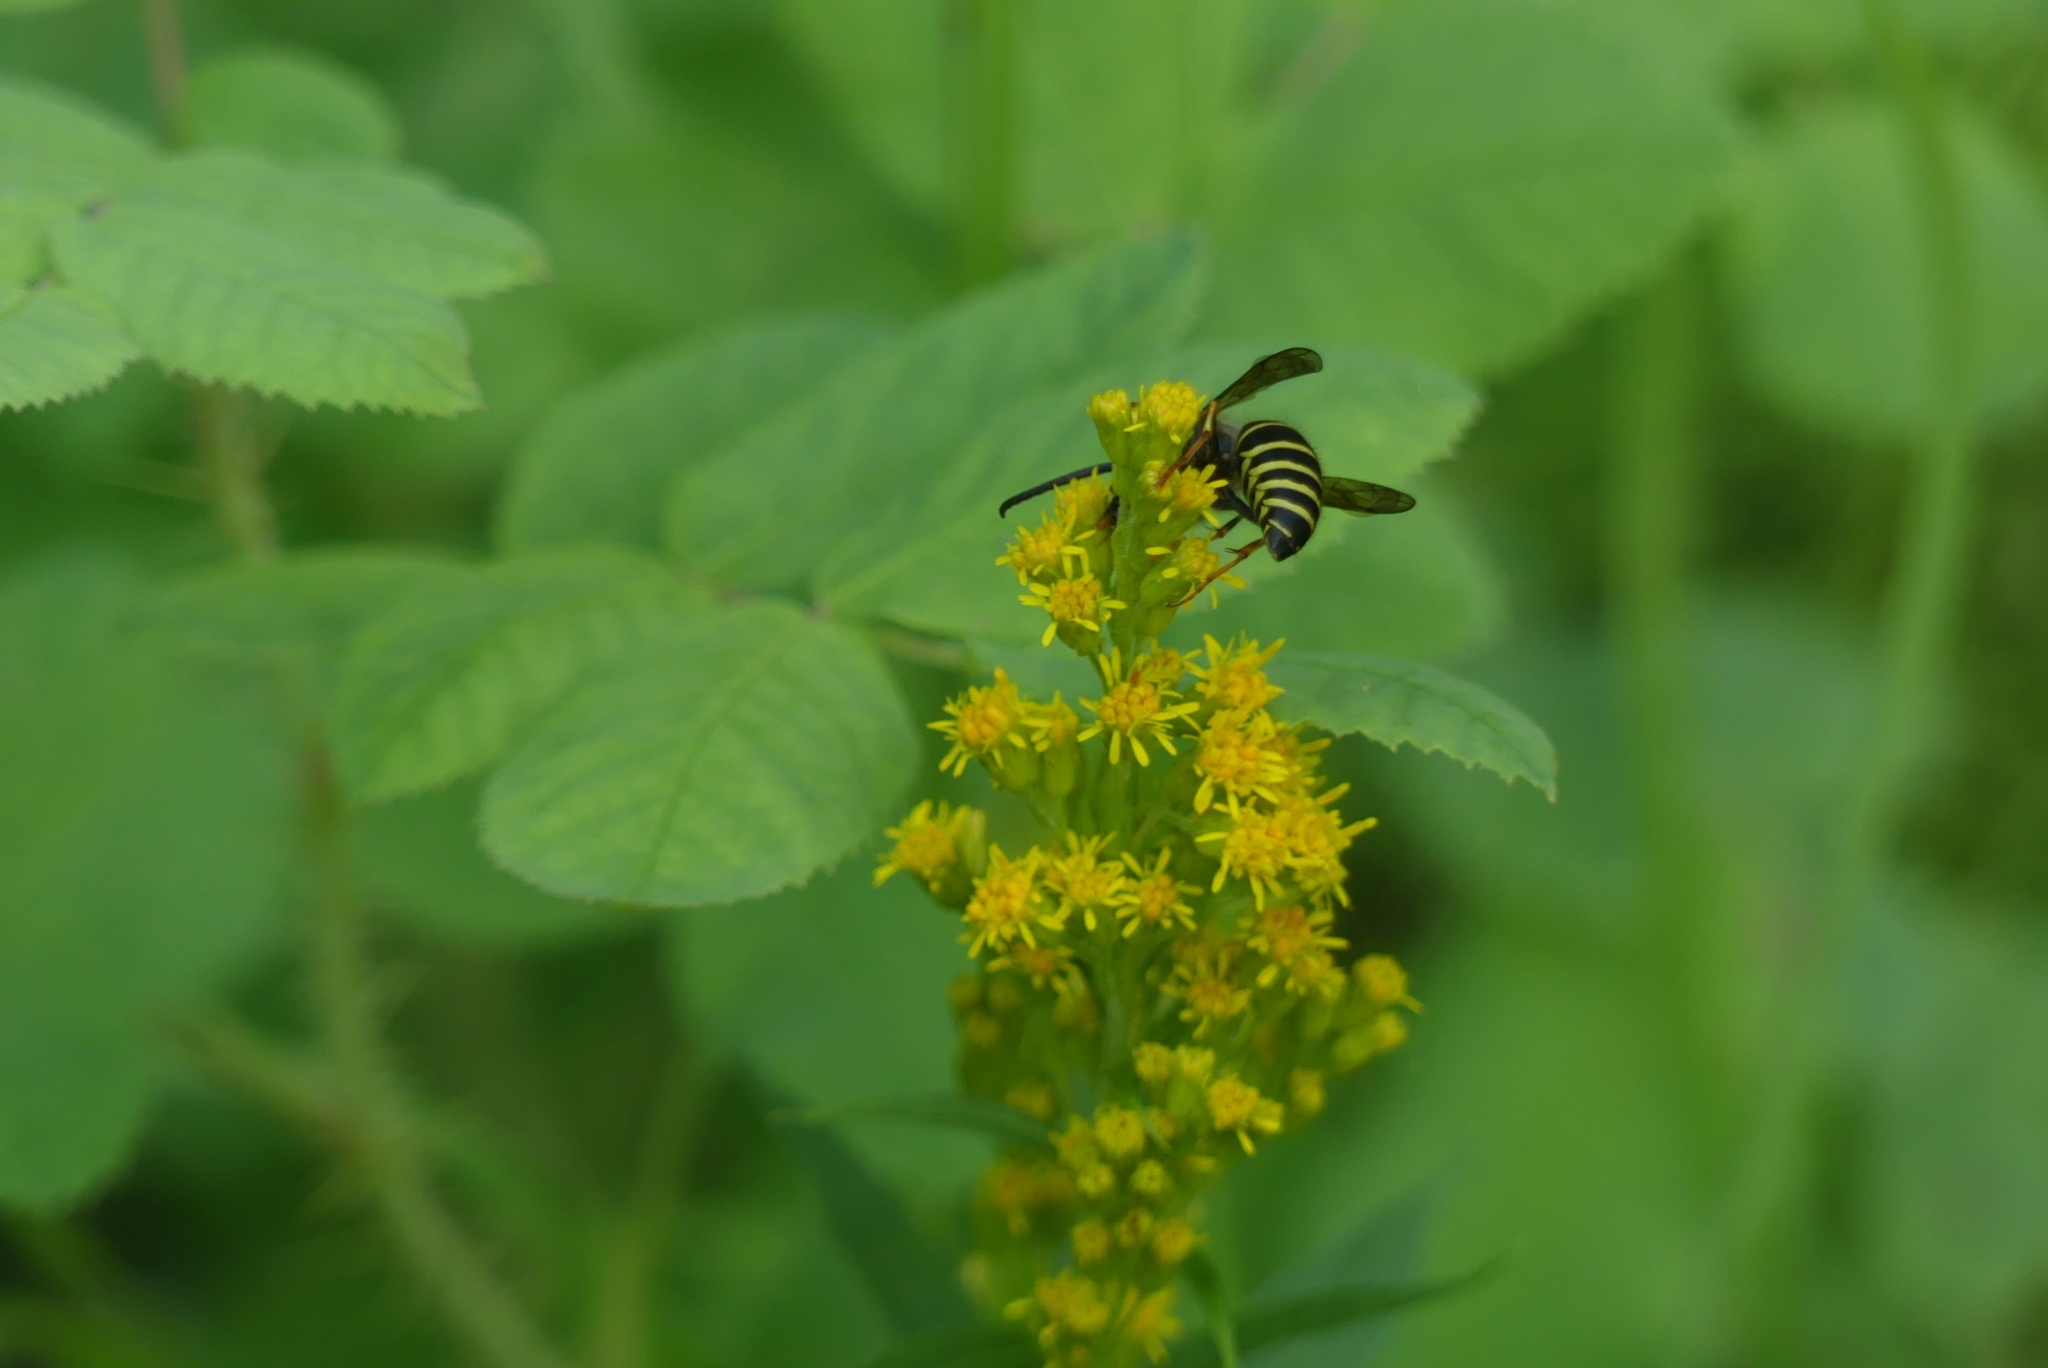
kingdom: Animalia
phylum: Arthropoda
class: Insecta
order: Hymenoptera
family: Vespidae
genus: Dolichovespula
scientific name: Dolichovespula norvegicoides
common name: Northern aerial yellowjacket
